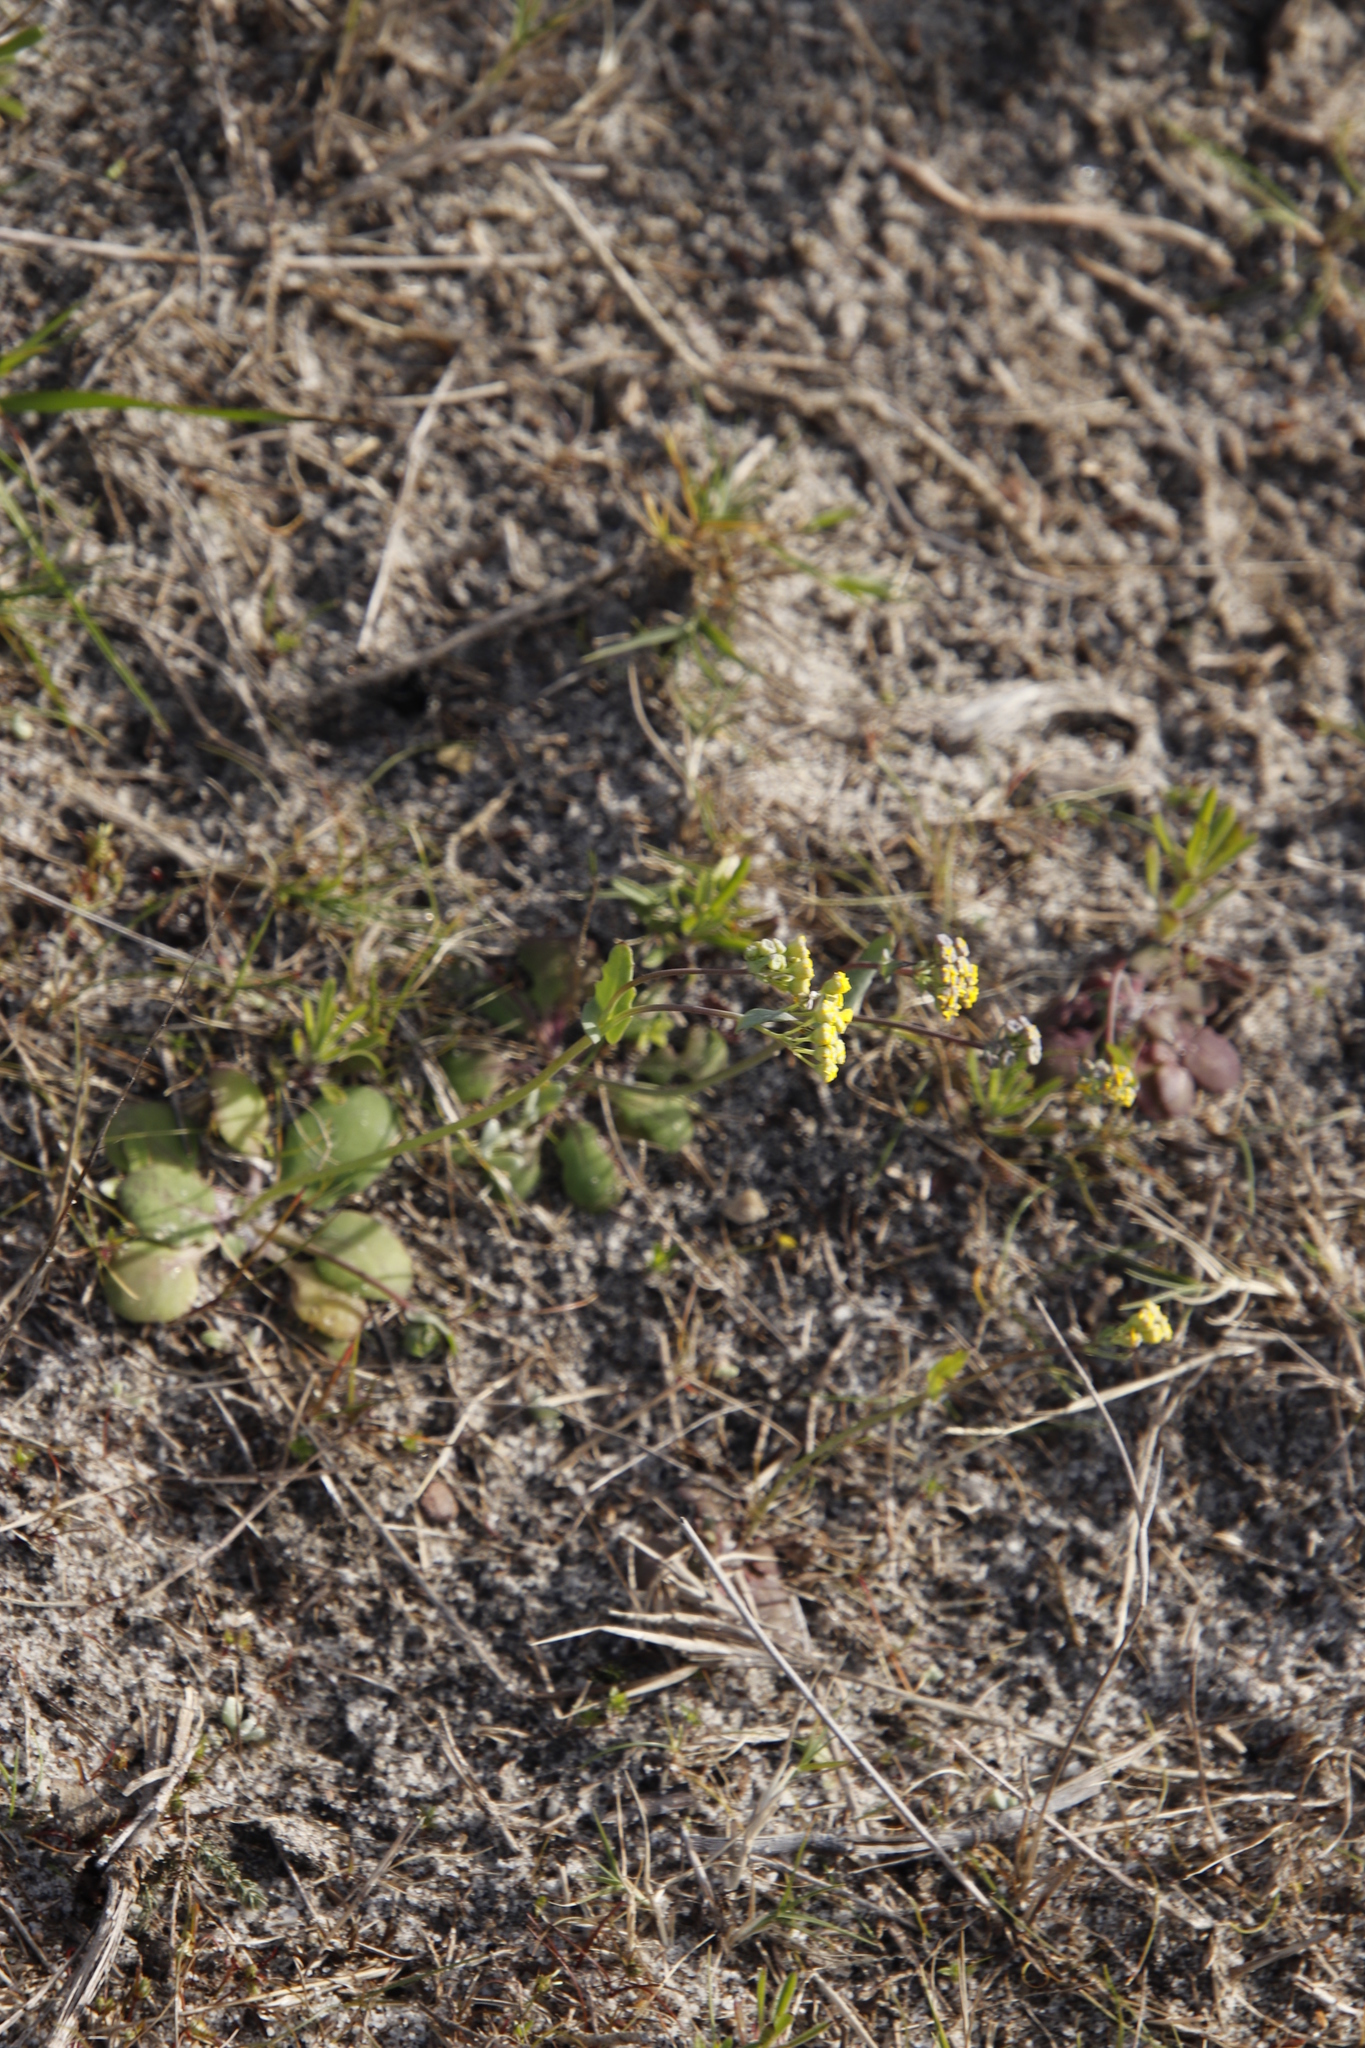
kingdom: Plantae
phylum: Tracheophyta
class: Magnoliopsida
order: Asterales
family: Asteraceae
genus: Gymnodiscus
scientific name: Gymnodiscus capillaris
